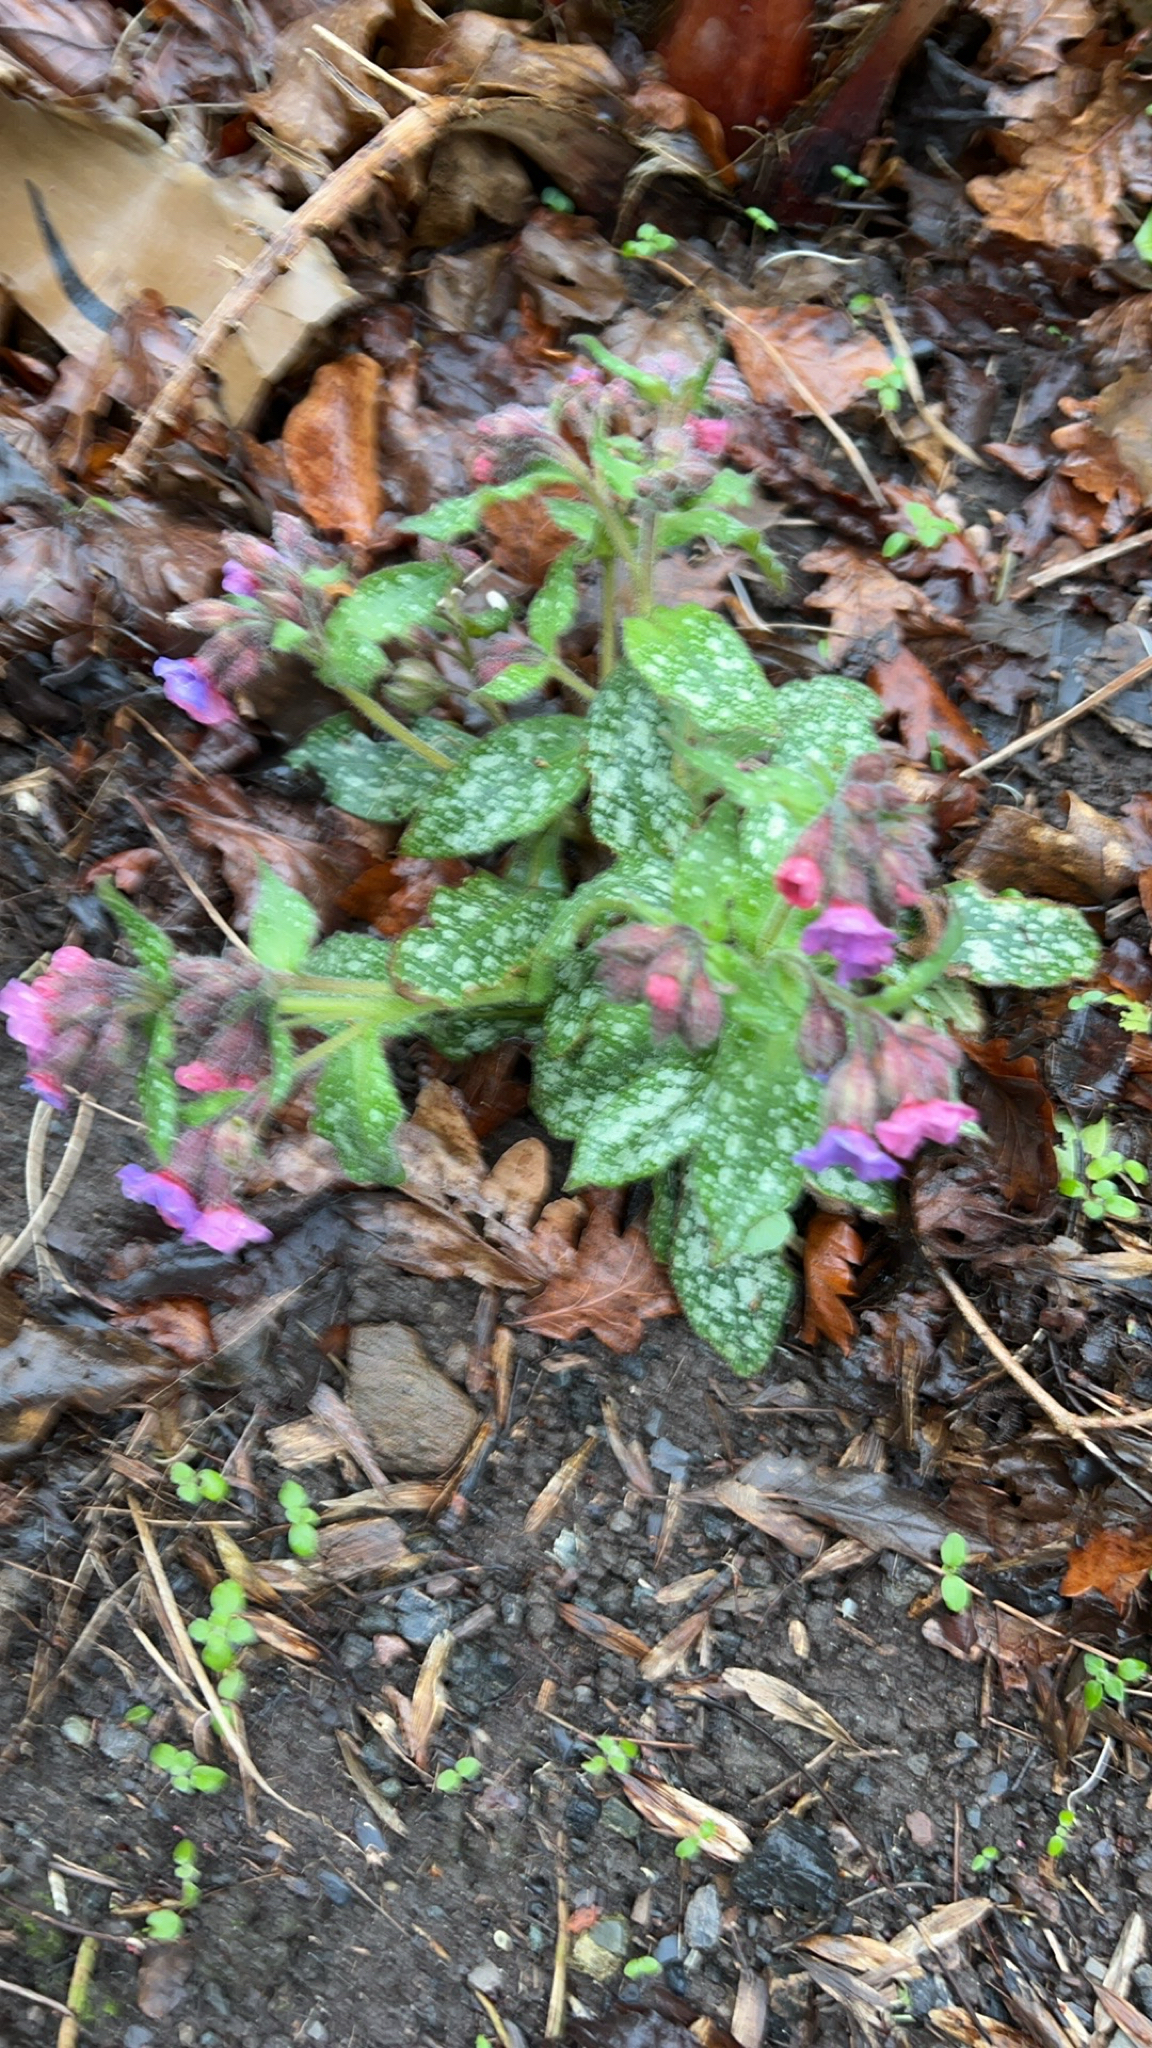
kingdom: Plantae
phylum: Tracheophyta
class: Magnoliopsida
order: Boraginales
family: Boraginaceae
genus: Pulmonaria
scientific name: Pulmonaria officinalis
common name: Lungwort
